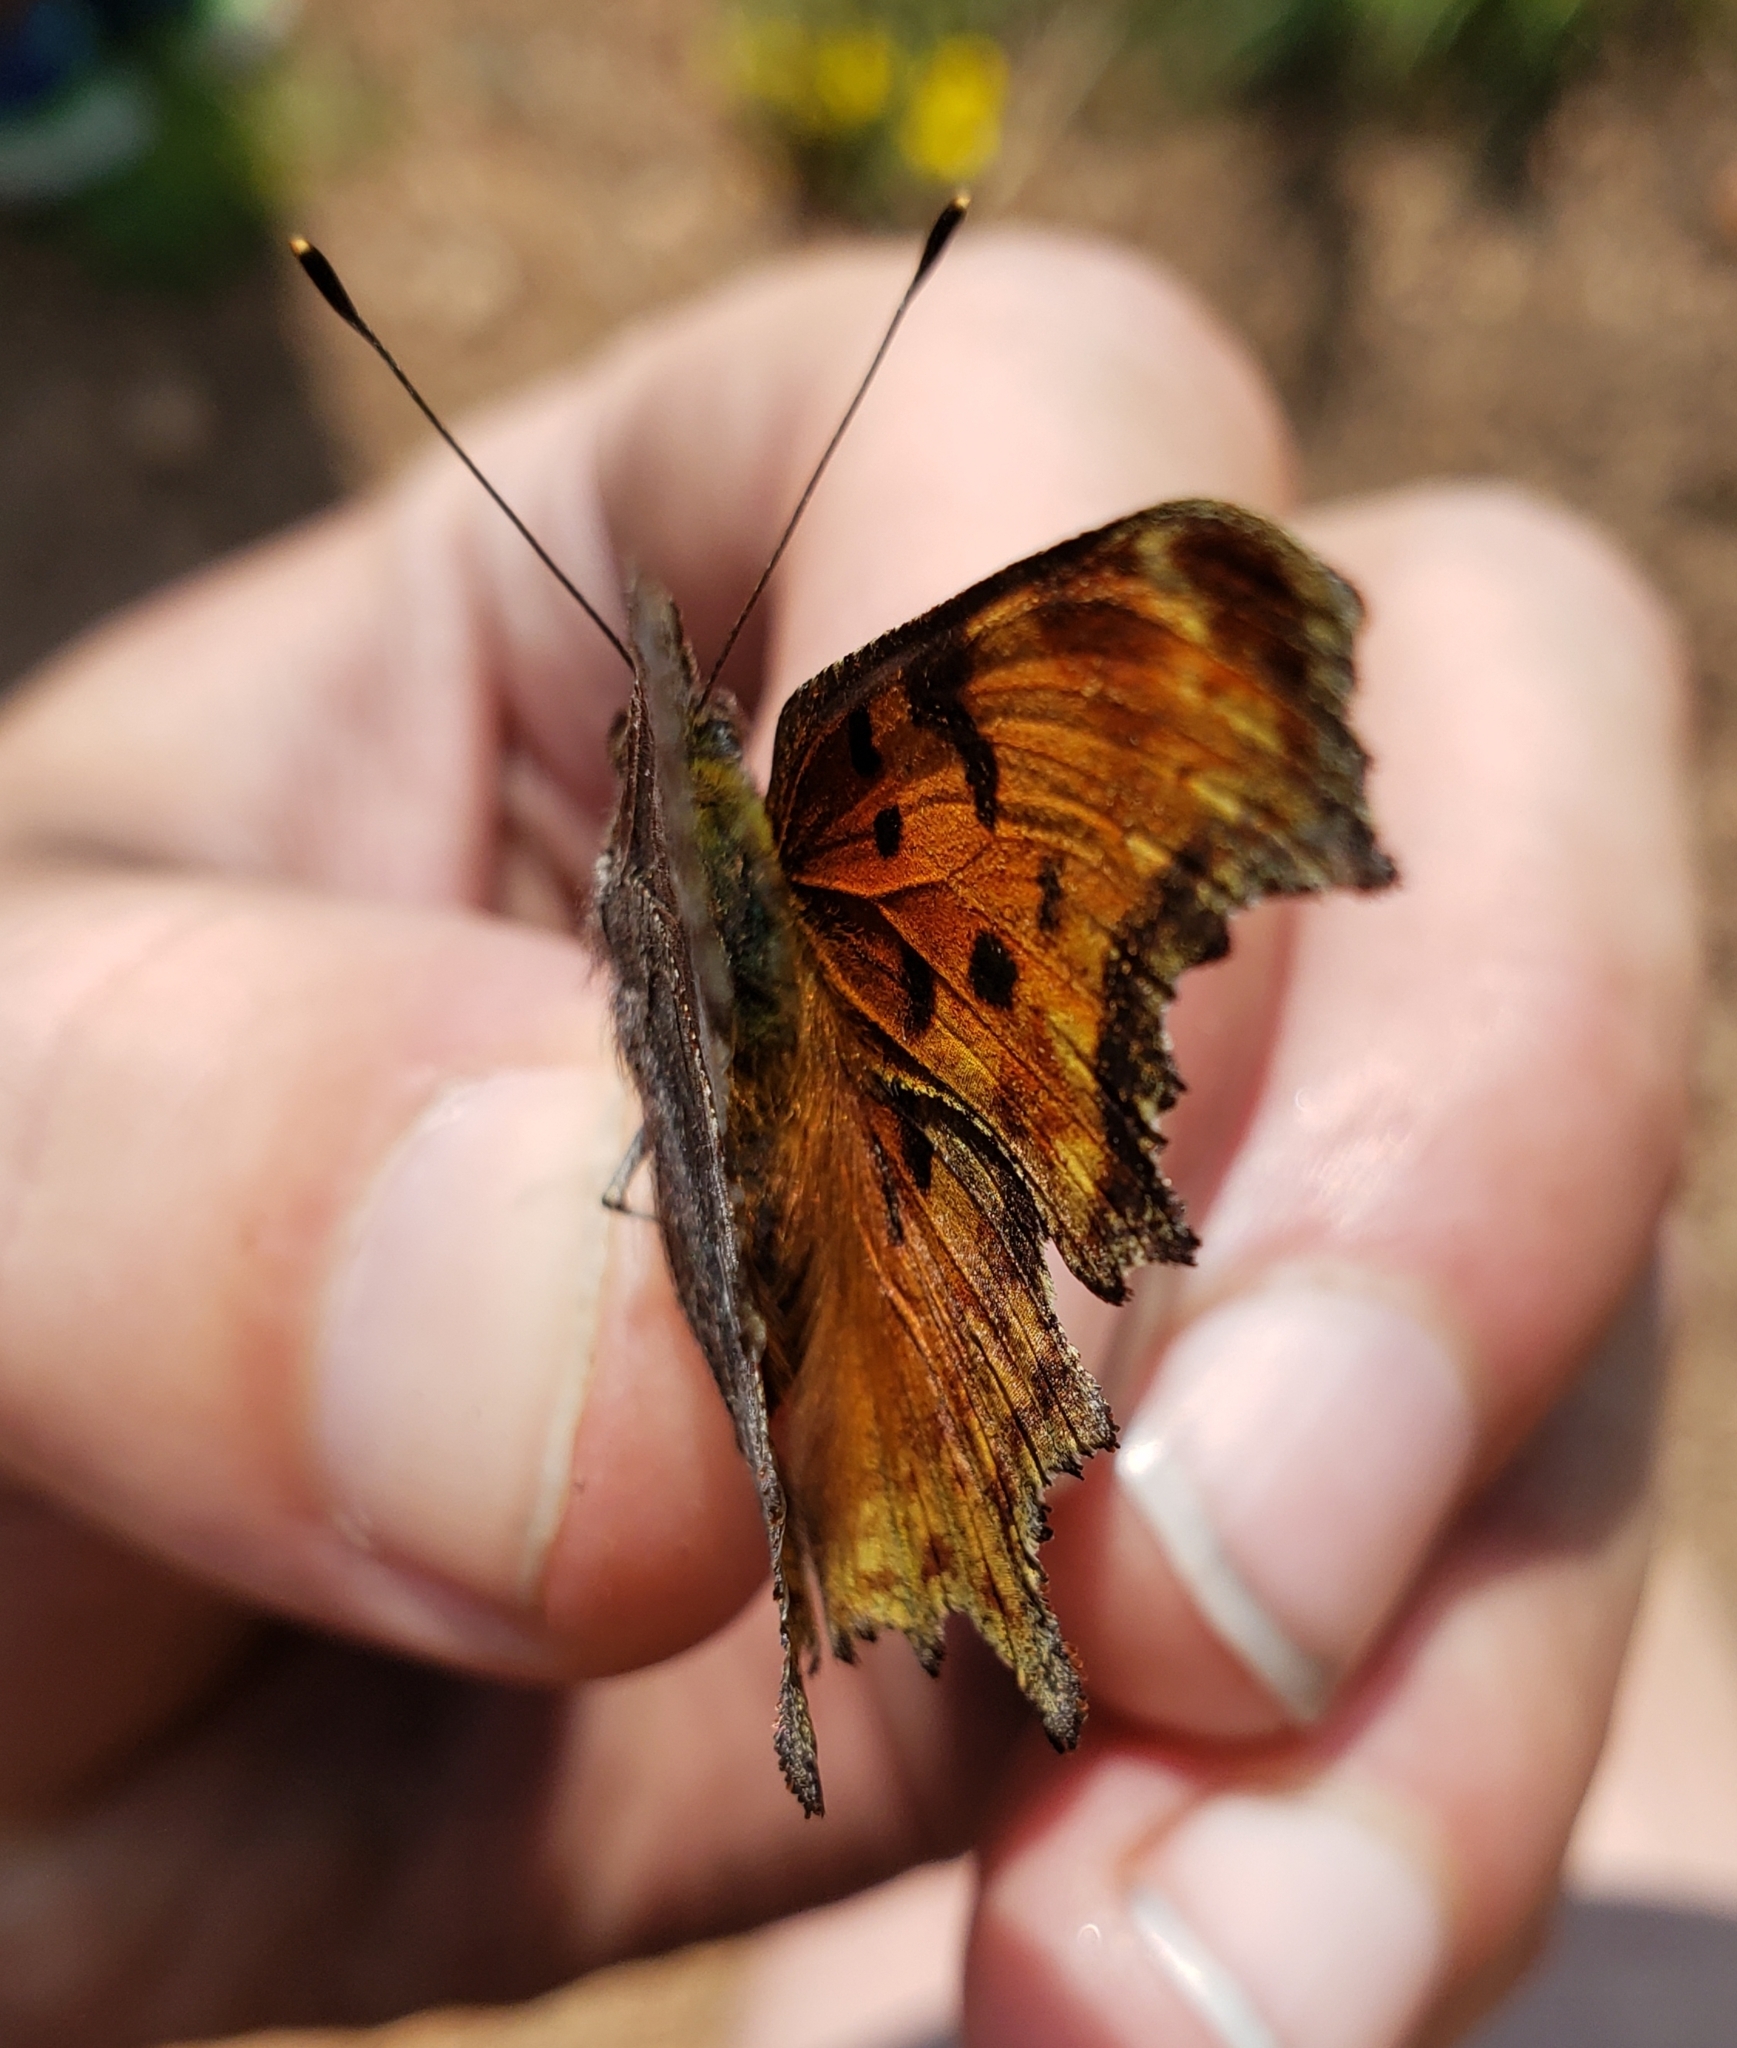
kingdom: Animalia
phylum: Arthropoda
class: Insecta
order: Lepidoptera
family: Nymphalidae
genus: Polygonia
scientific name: Polygonia gracilis
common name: Hoary comma
